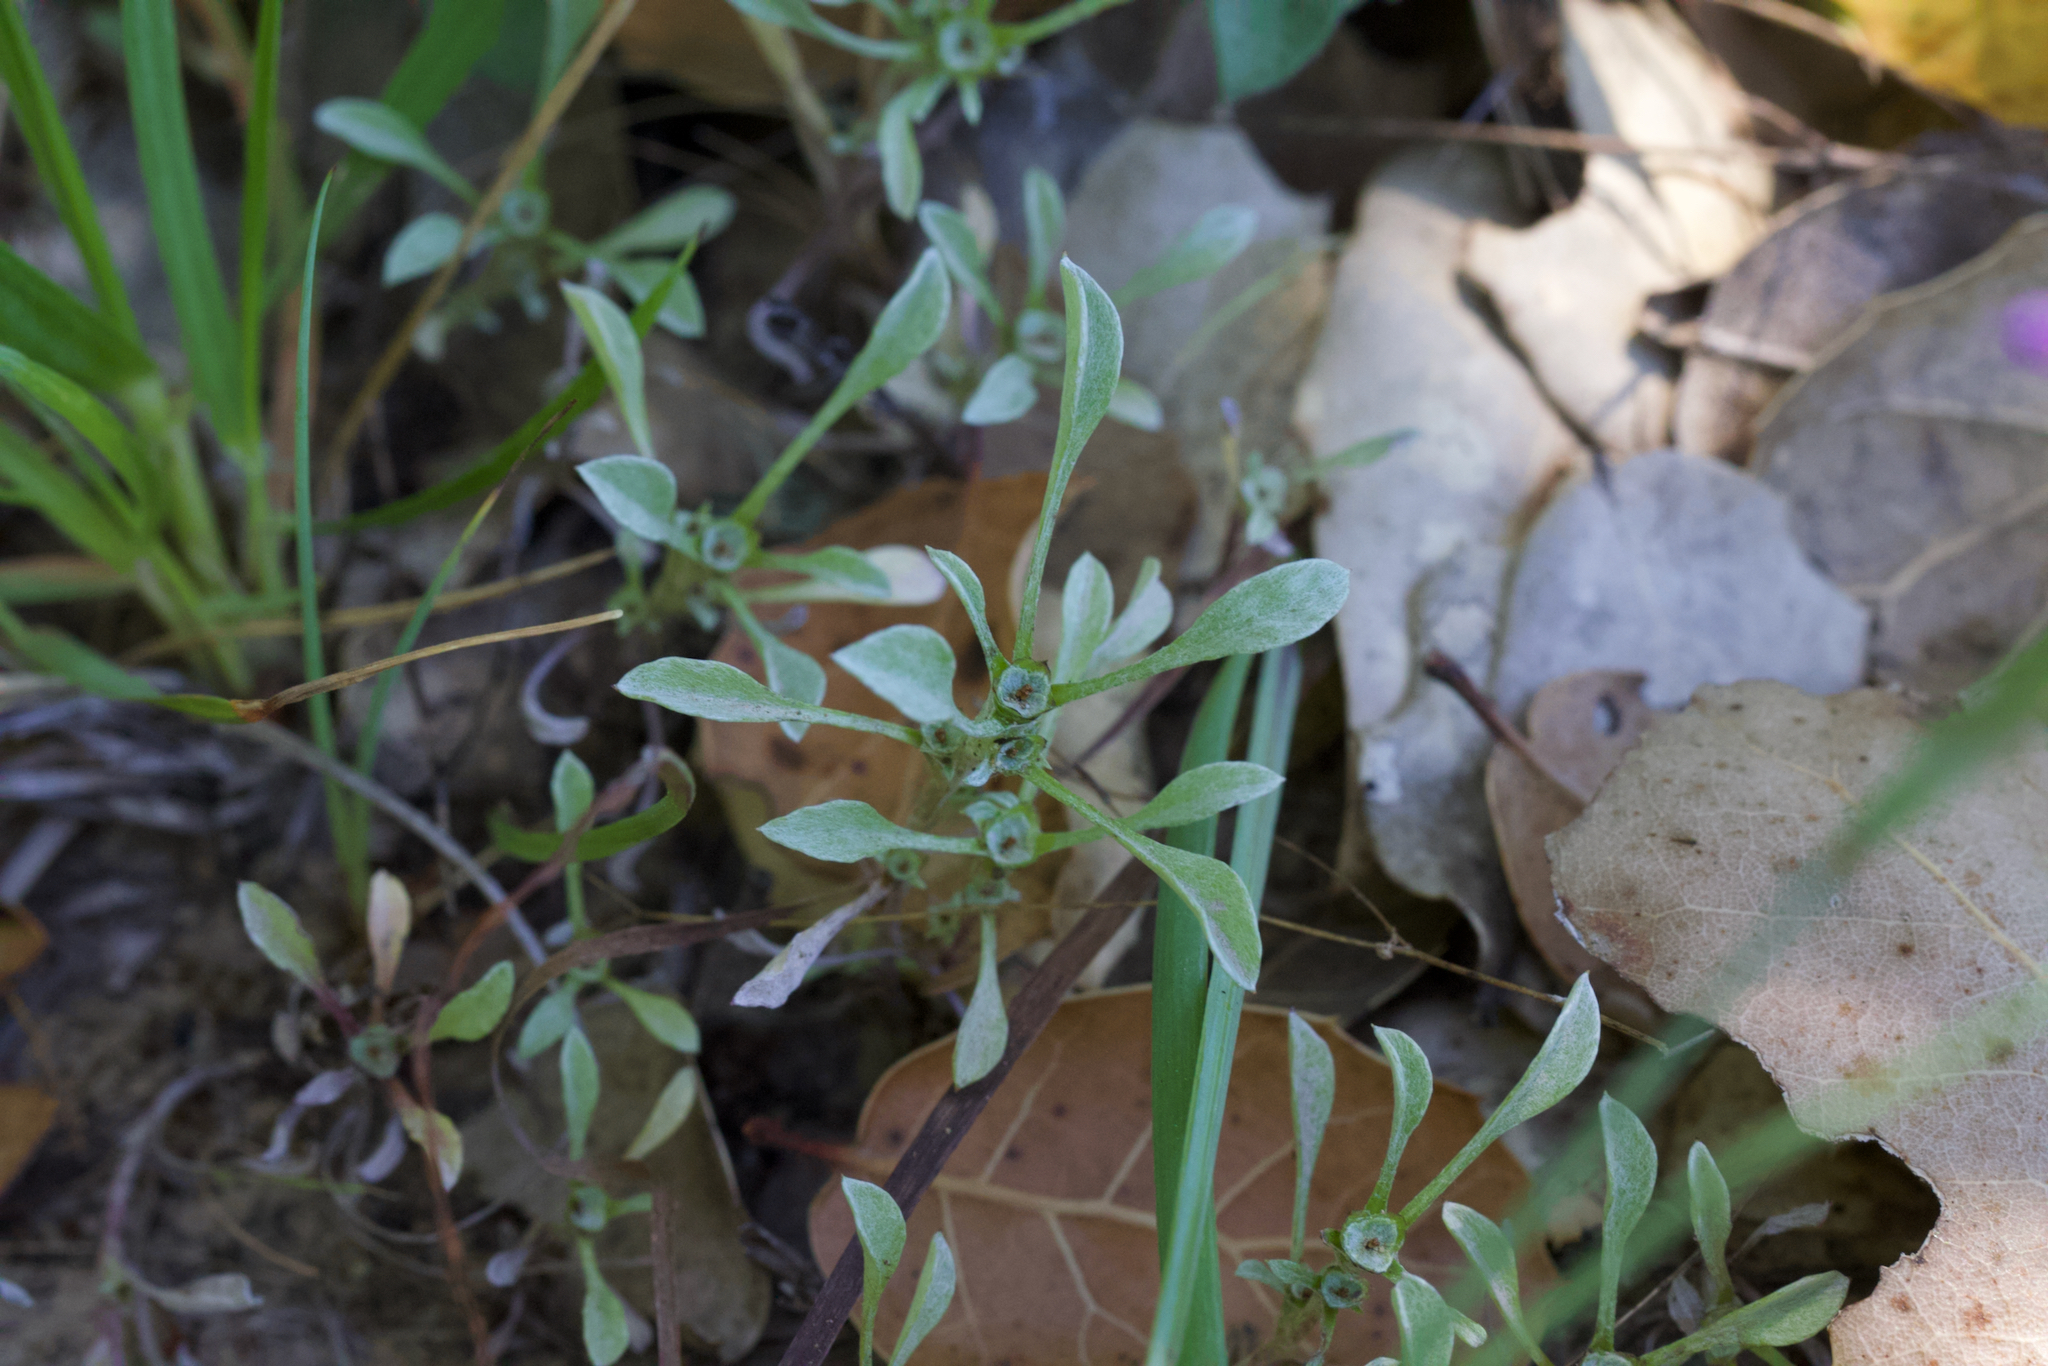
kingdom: Plantae
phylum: Tracheophyta
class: Magnoliopsida
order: Asterales
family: Asteraceae
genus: Hesperevax
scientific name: Hesperevax sparsiflora
